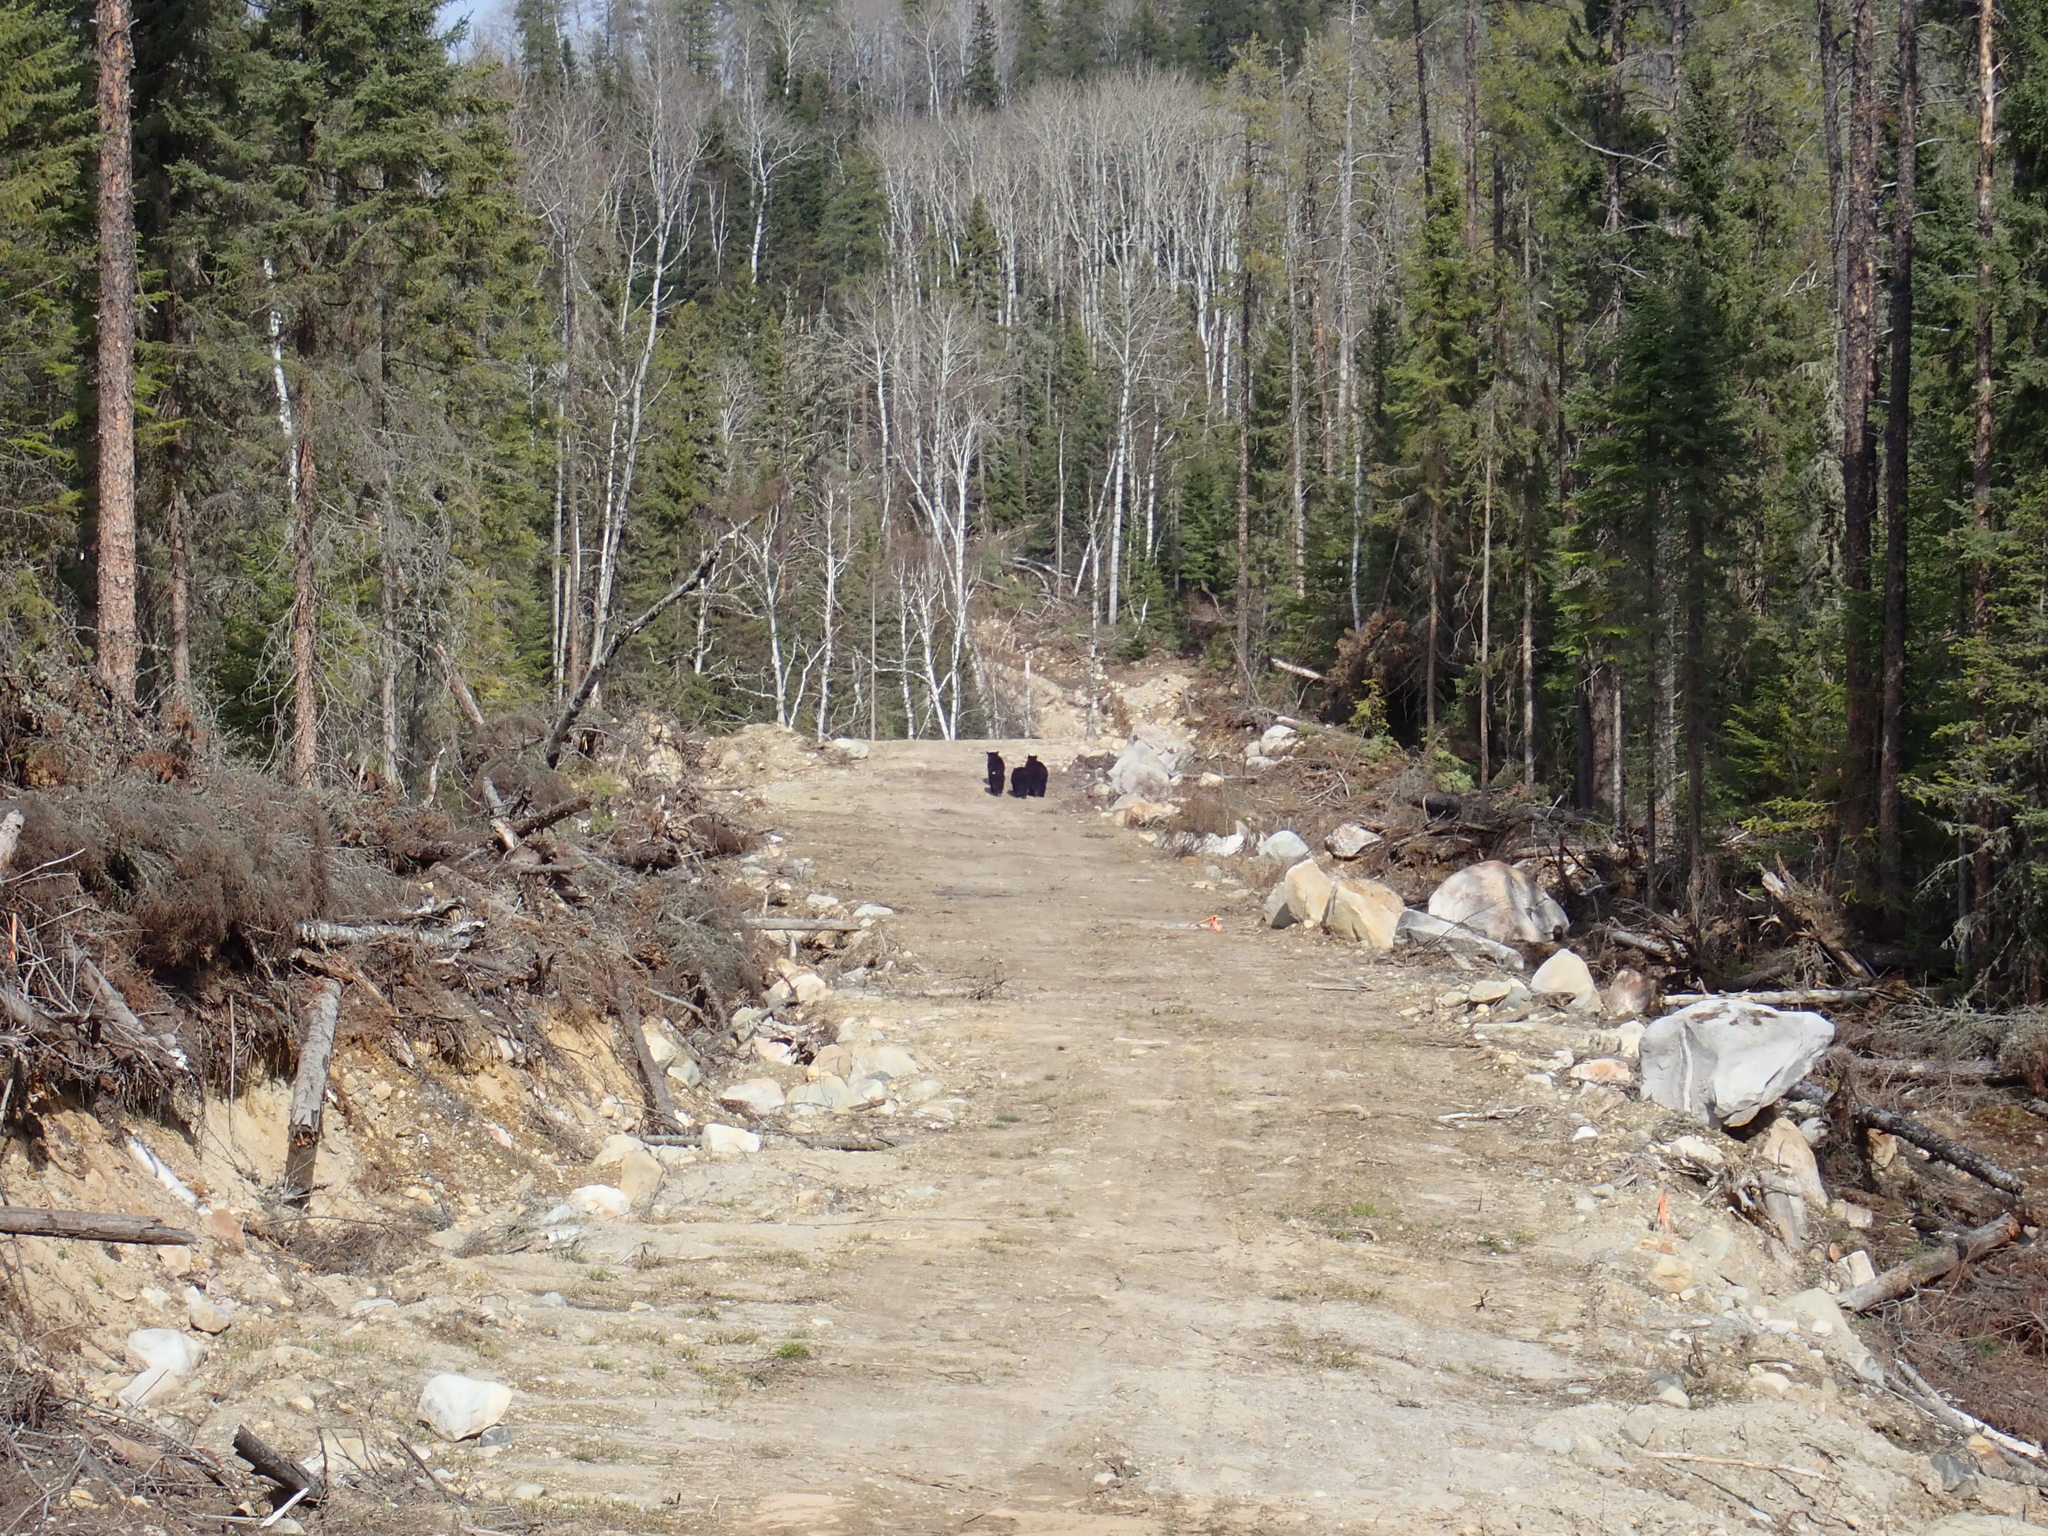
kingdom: Animalia
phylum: Chordata
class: Mammalia
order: Carnivora
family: Ursidae
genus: Ursus
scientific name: Ursus americanus
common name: American black bear
